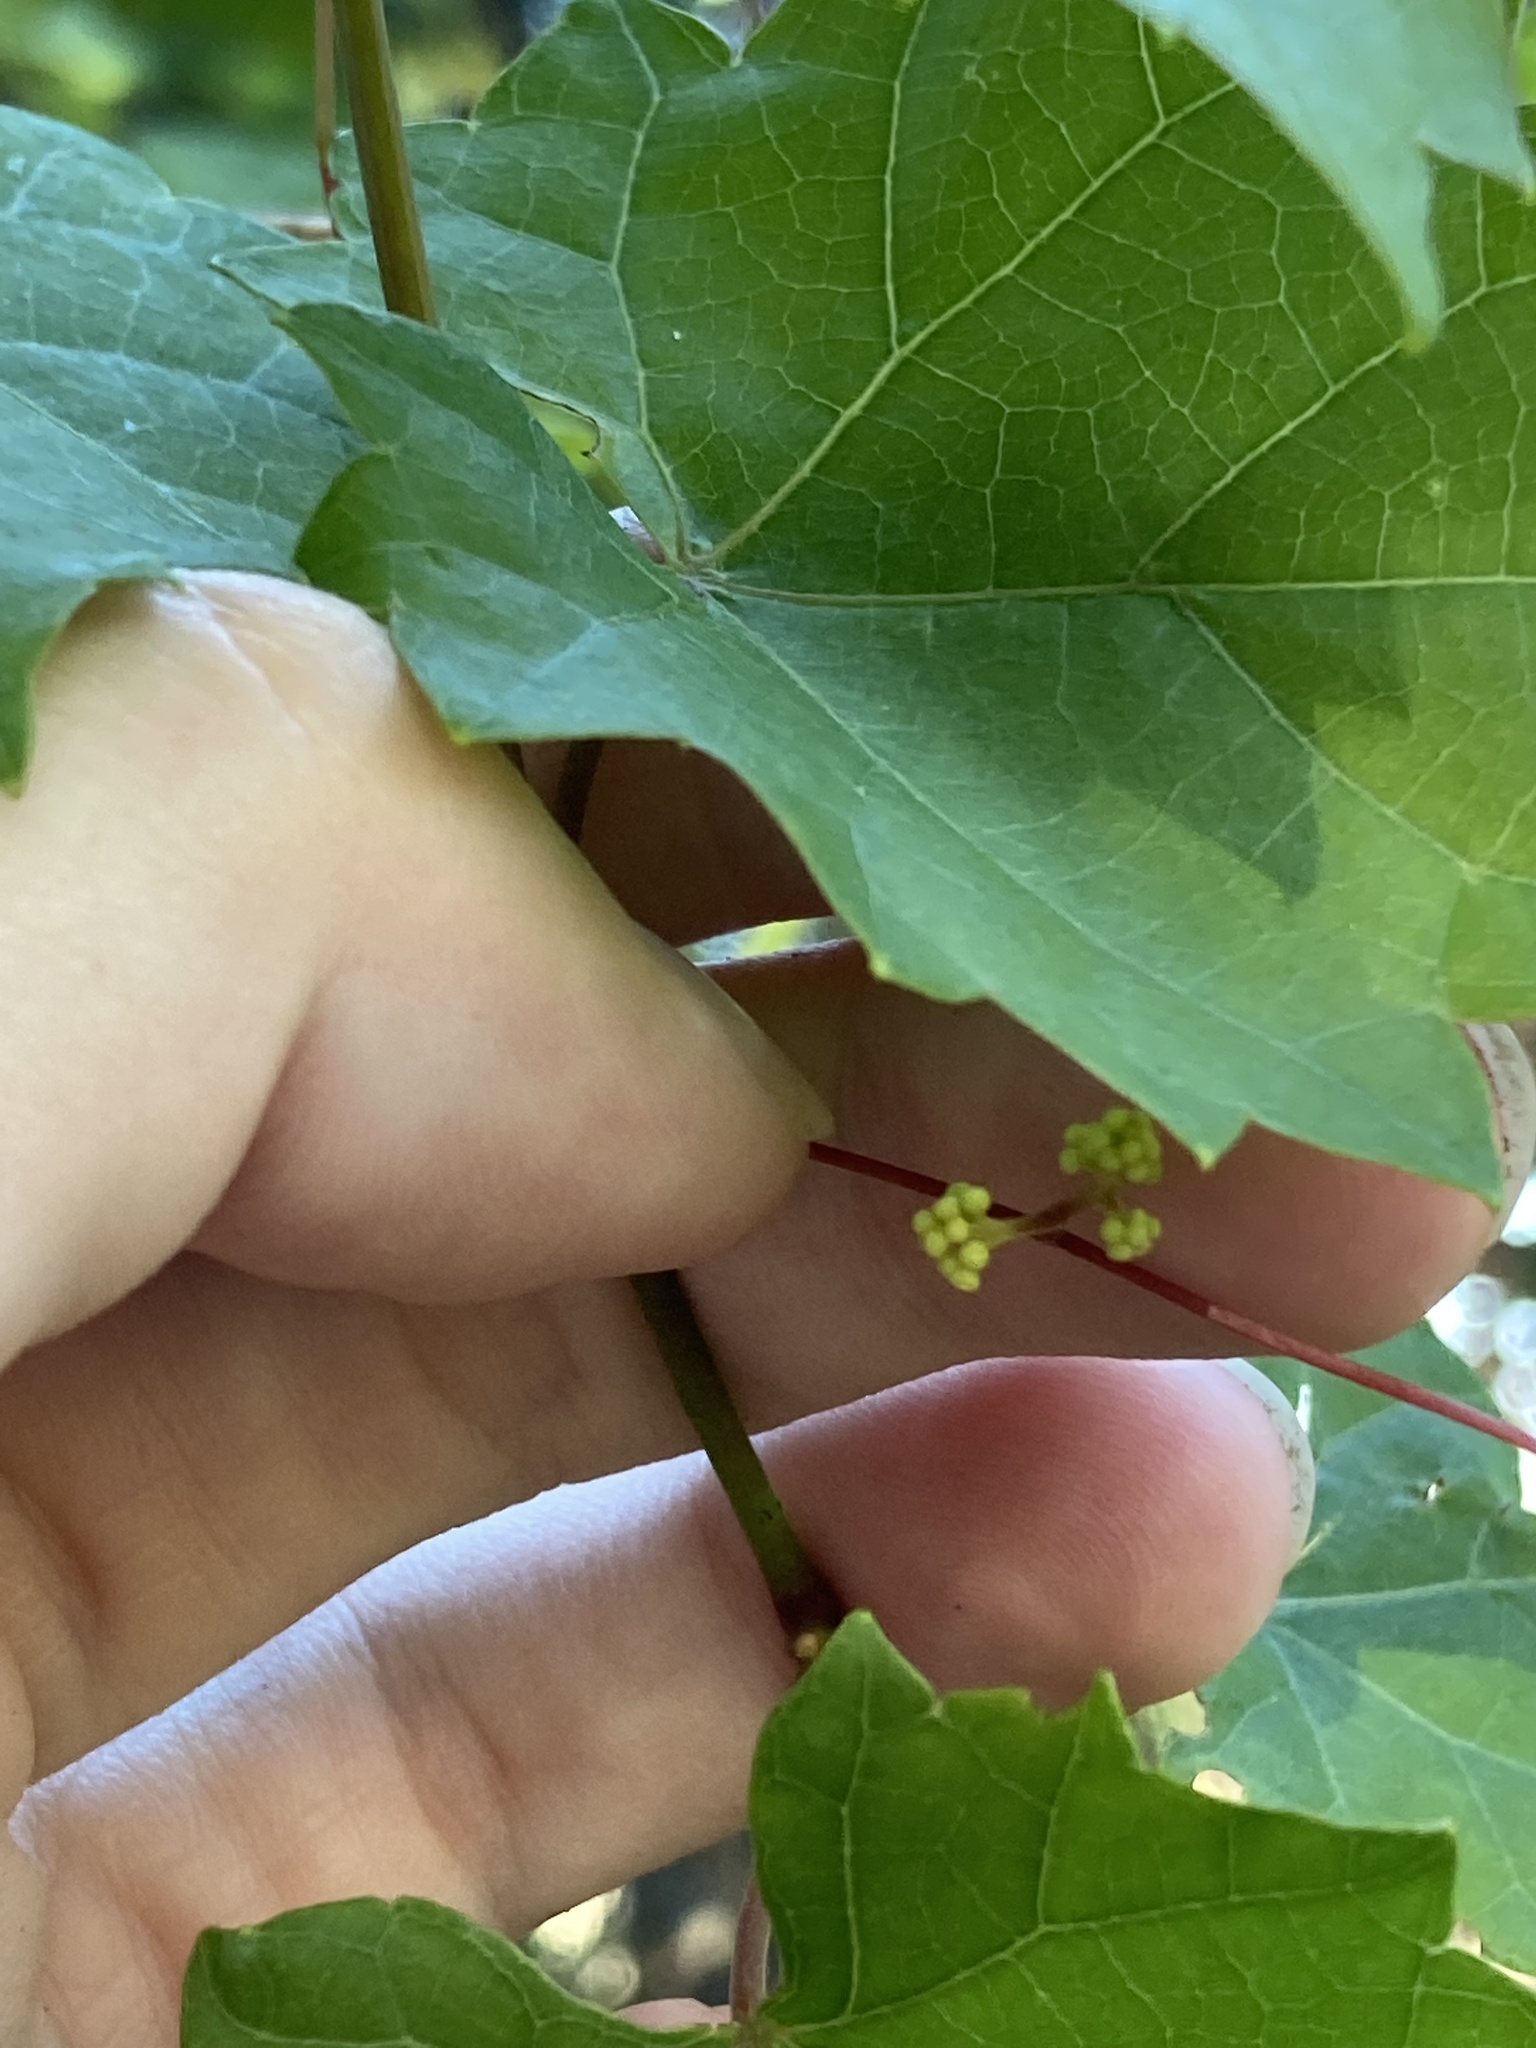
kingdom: Plantae
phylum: Tracheophyta
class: Magnoliopsida
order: Vitales
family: Vitaceae
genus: Vitis
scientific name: Vitis rotundifolia
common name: Muscadine grape
